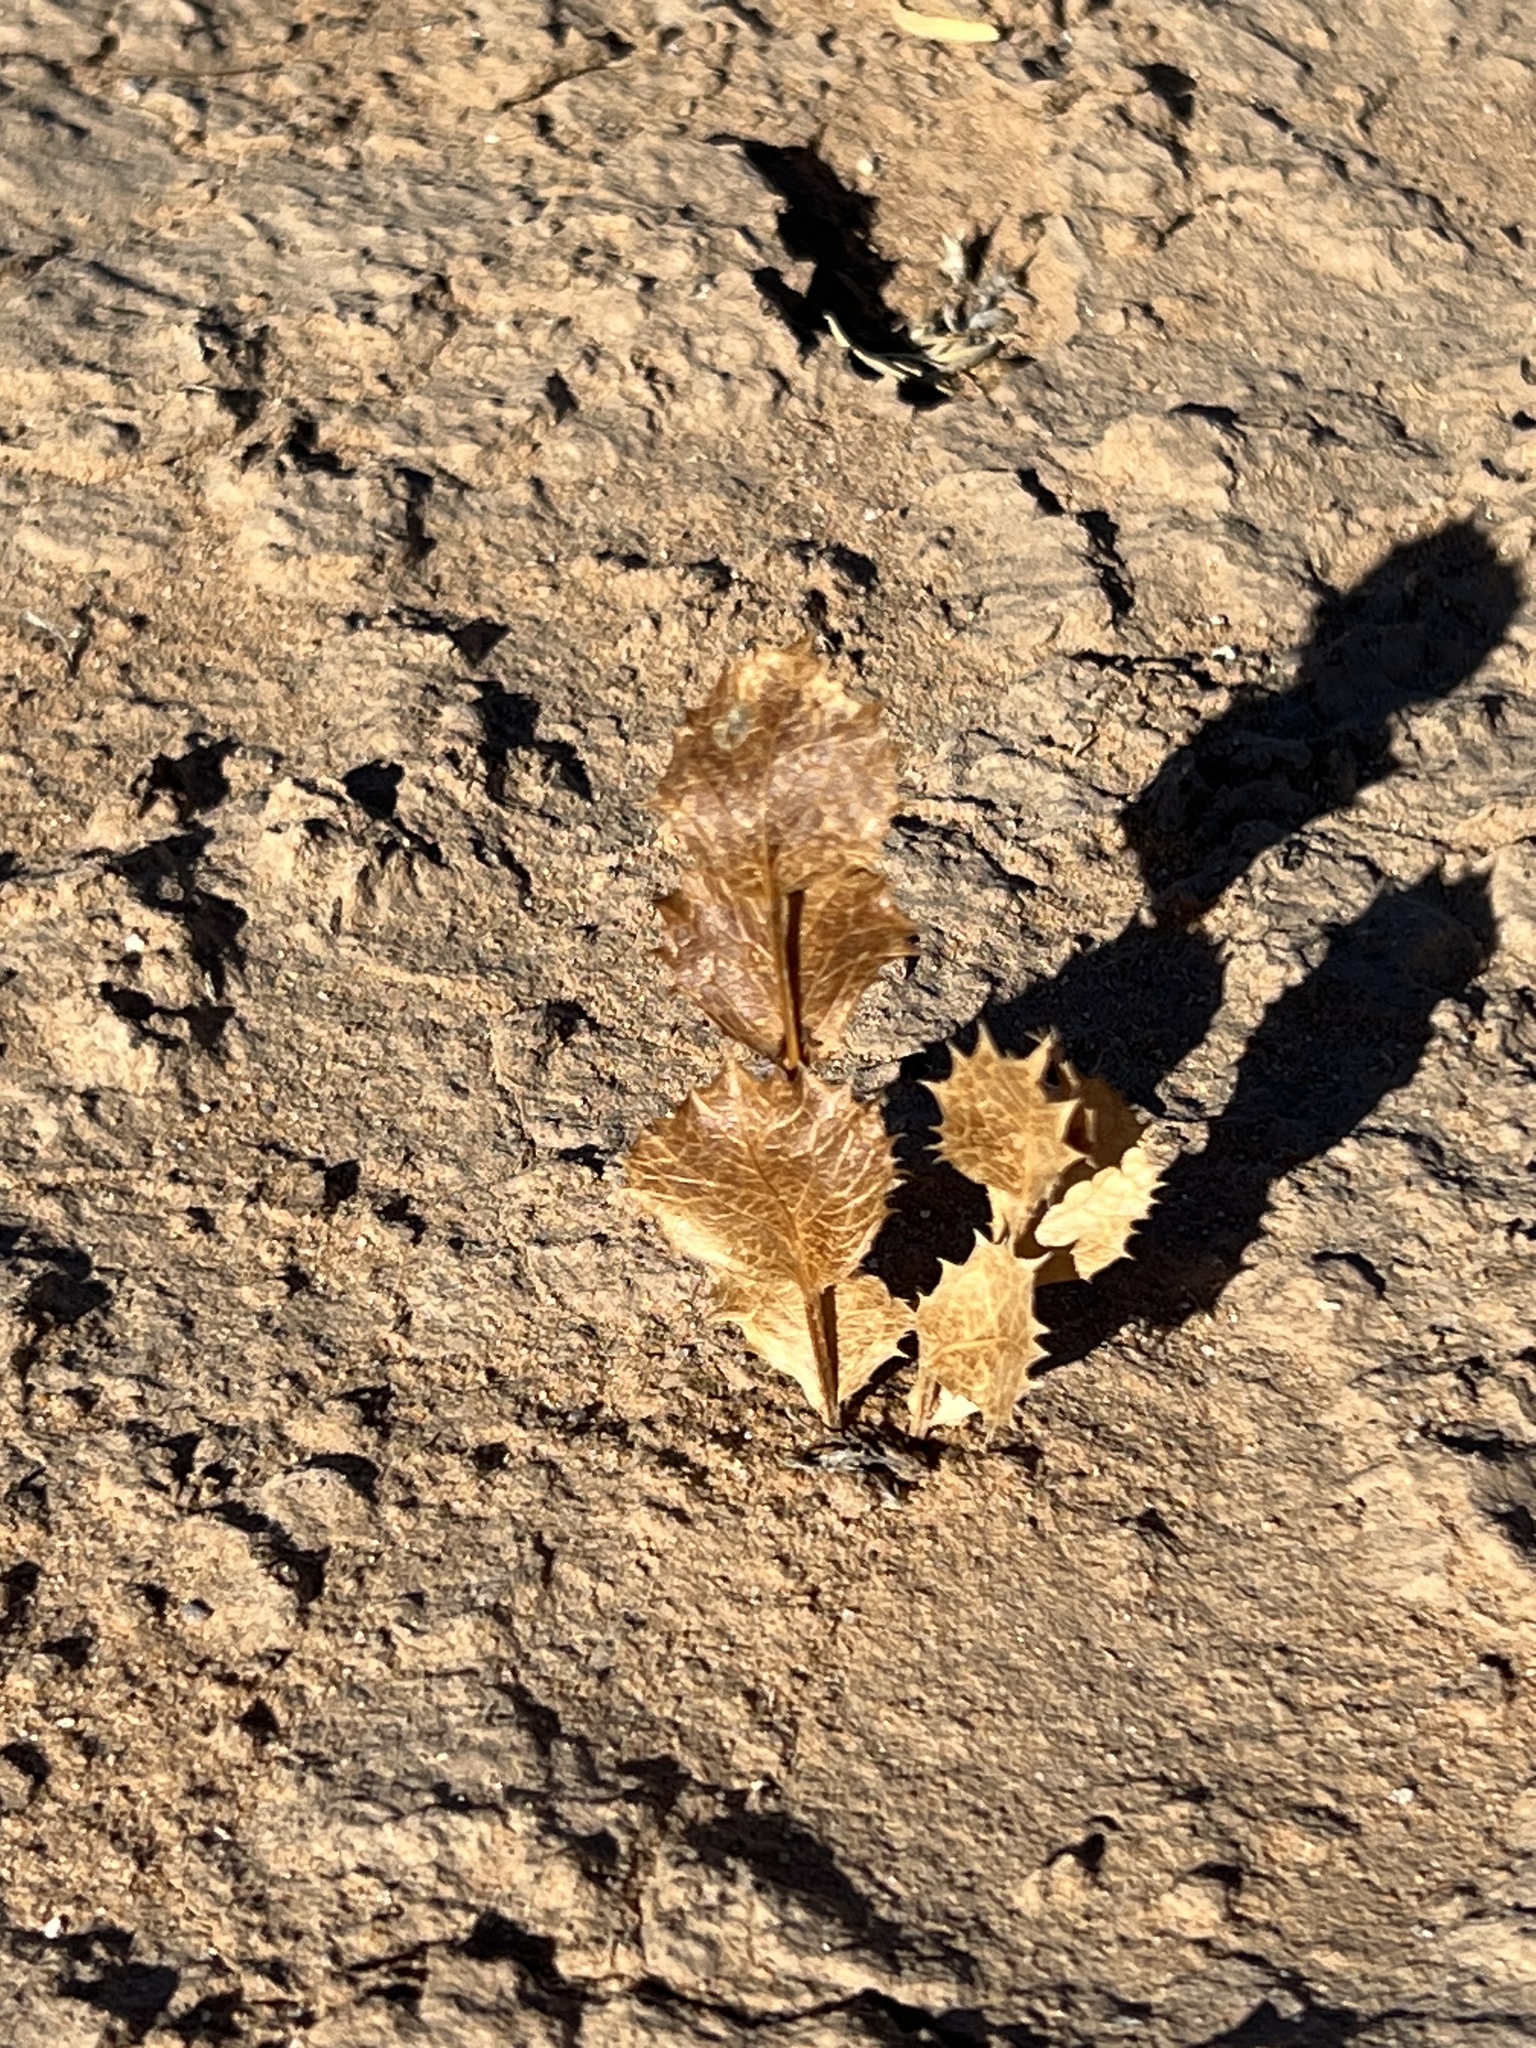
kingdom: Plantae
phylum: Tracheophyta
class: Magnoliopsida
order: Asterales
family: Asteraceae
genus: Acourtia
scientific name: Acourtia nana
